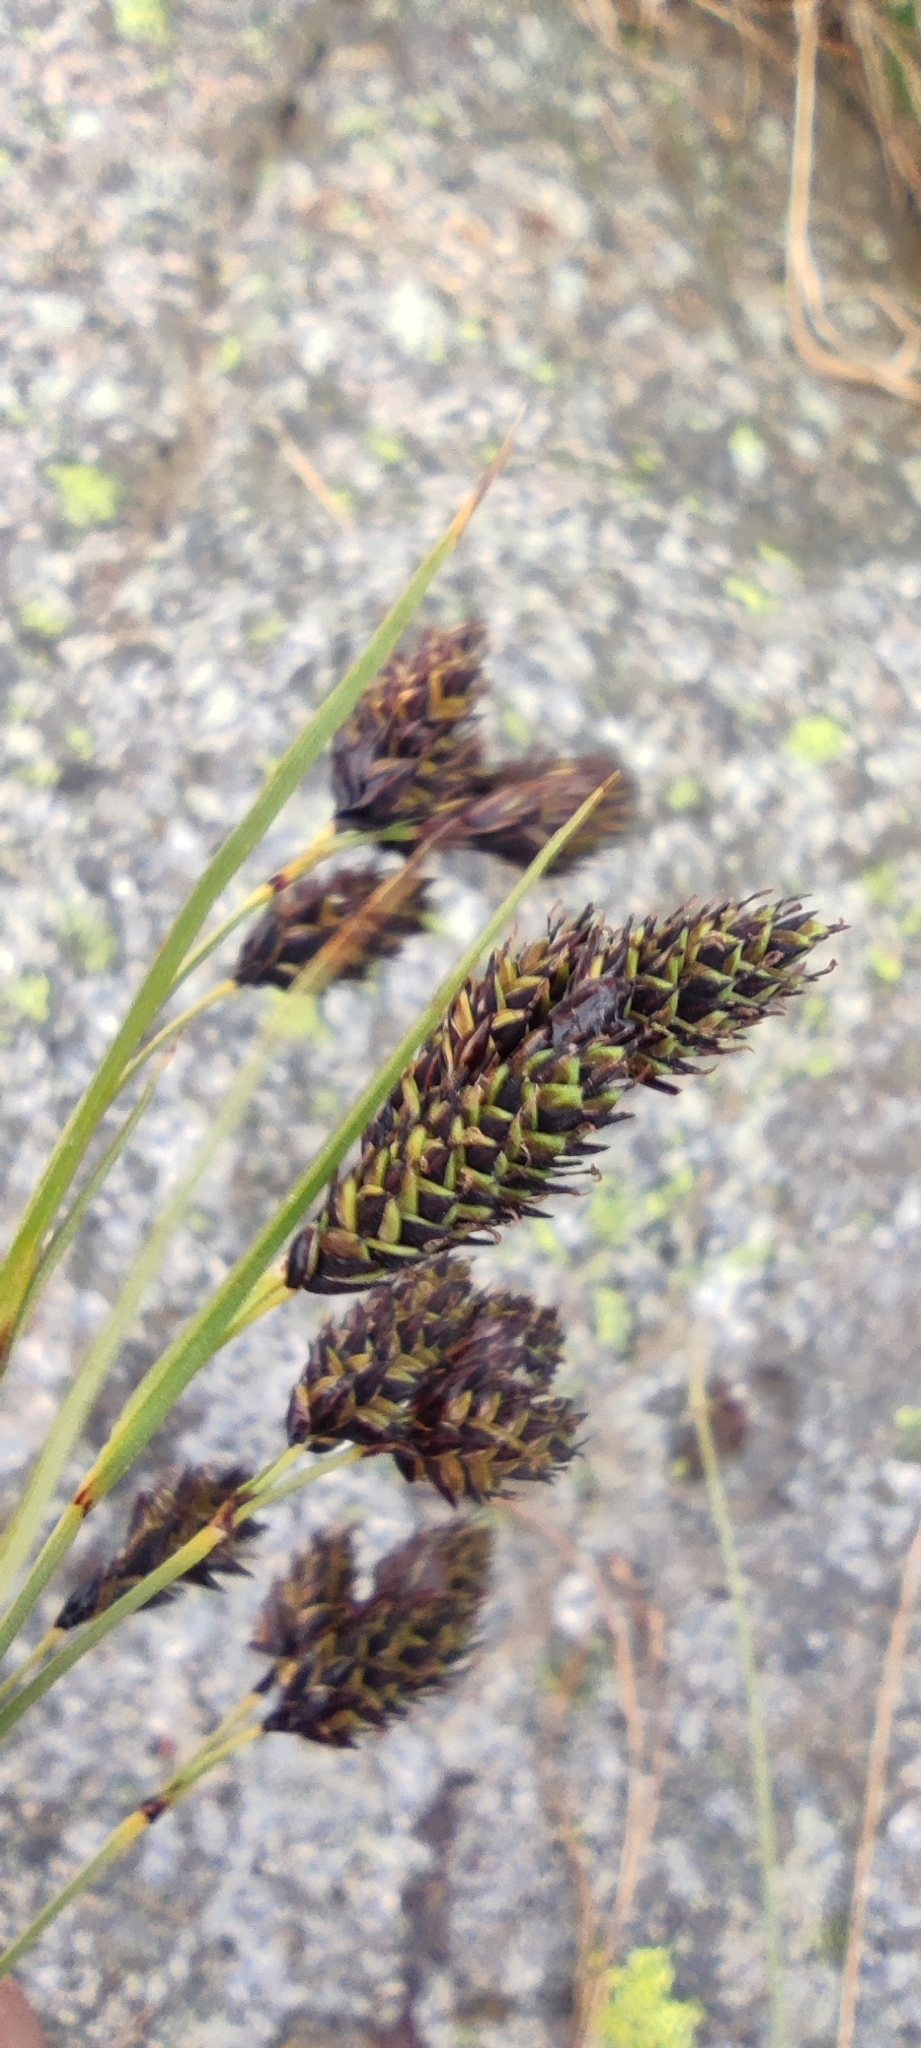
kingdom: Plantae
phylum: Tracheophyta
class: Liliopsida
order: Poales
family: Cyperaceae
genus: Carex
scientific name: Carex atrata
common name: Black alpine sedge
